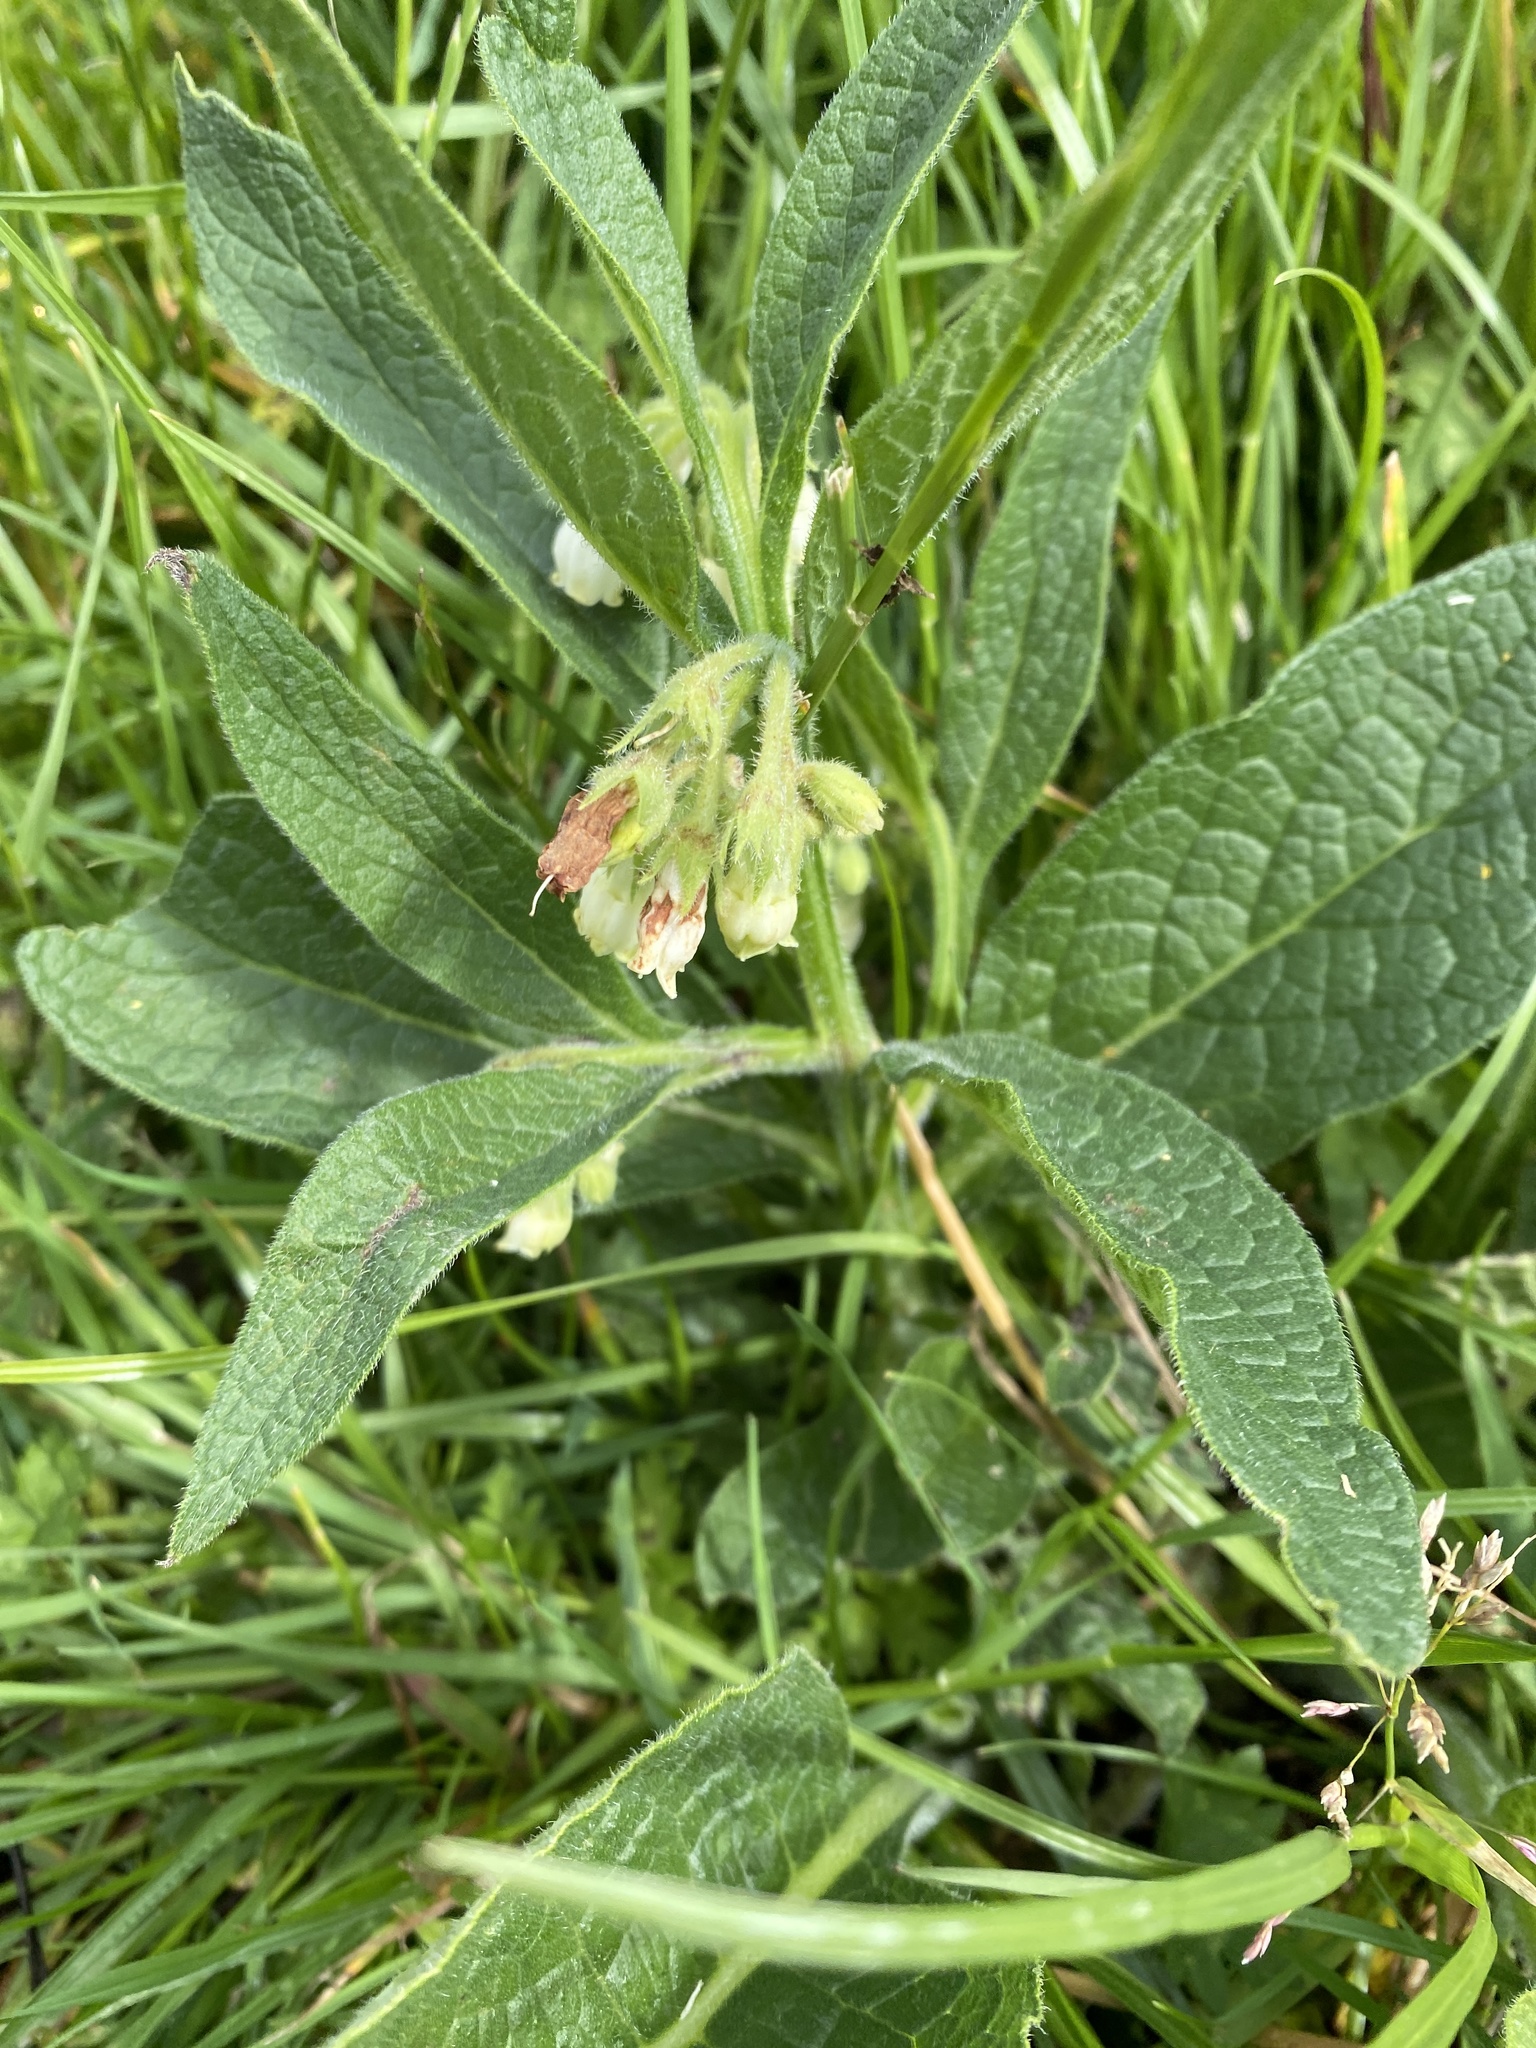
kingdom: Plantae
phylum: Tracheophyta
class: Magnoliopsida
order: Boraginales
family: Boraginaceae
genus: Symphytum
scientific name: Symphytum officinale
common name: Common comfrey
